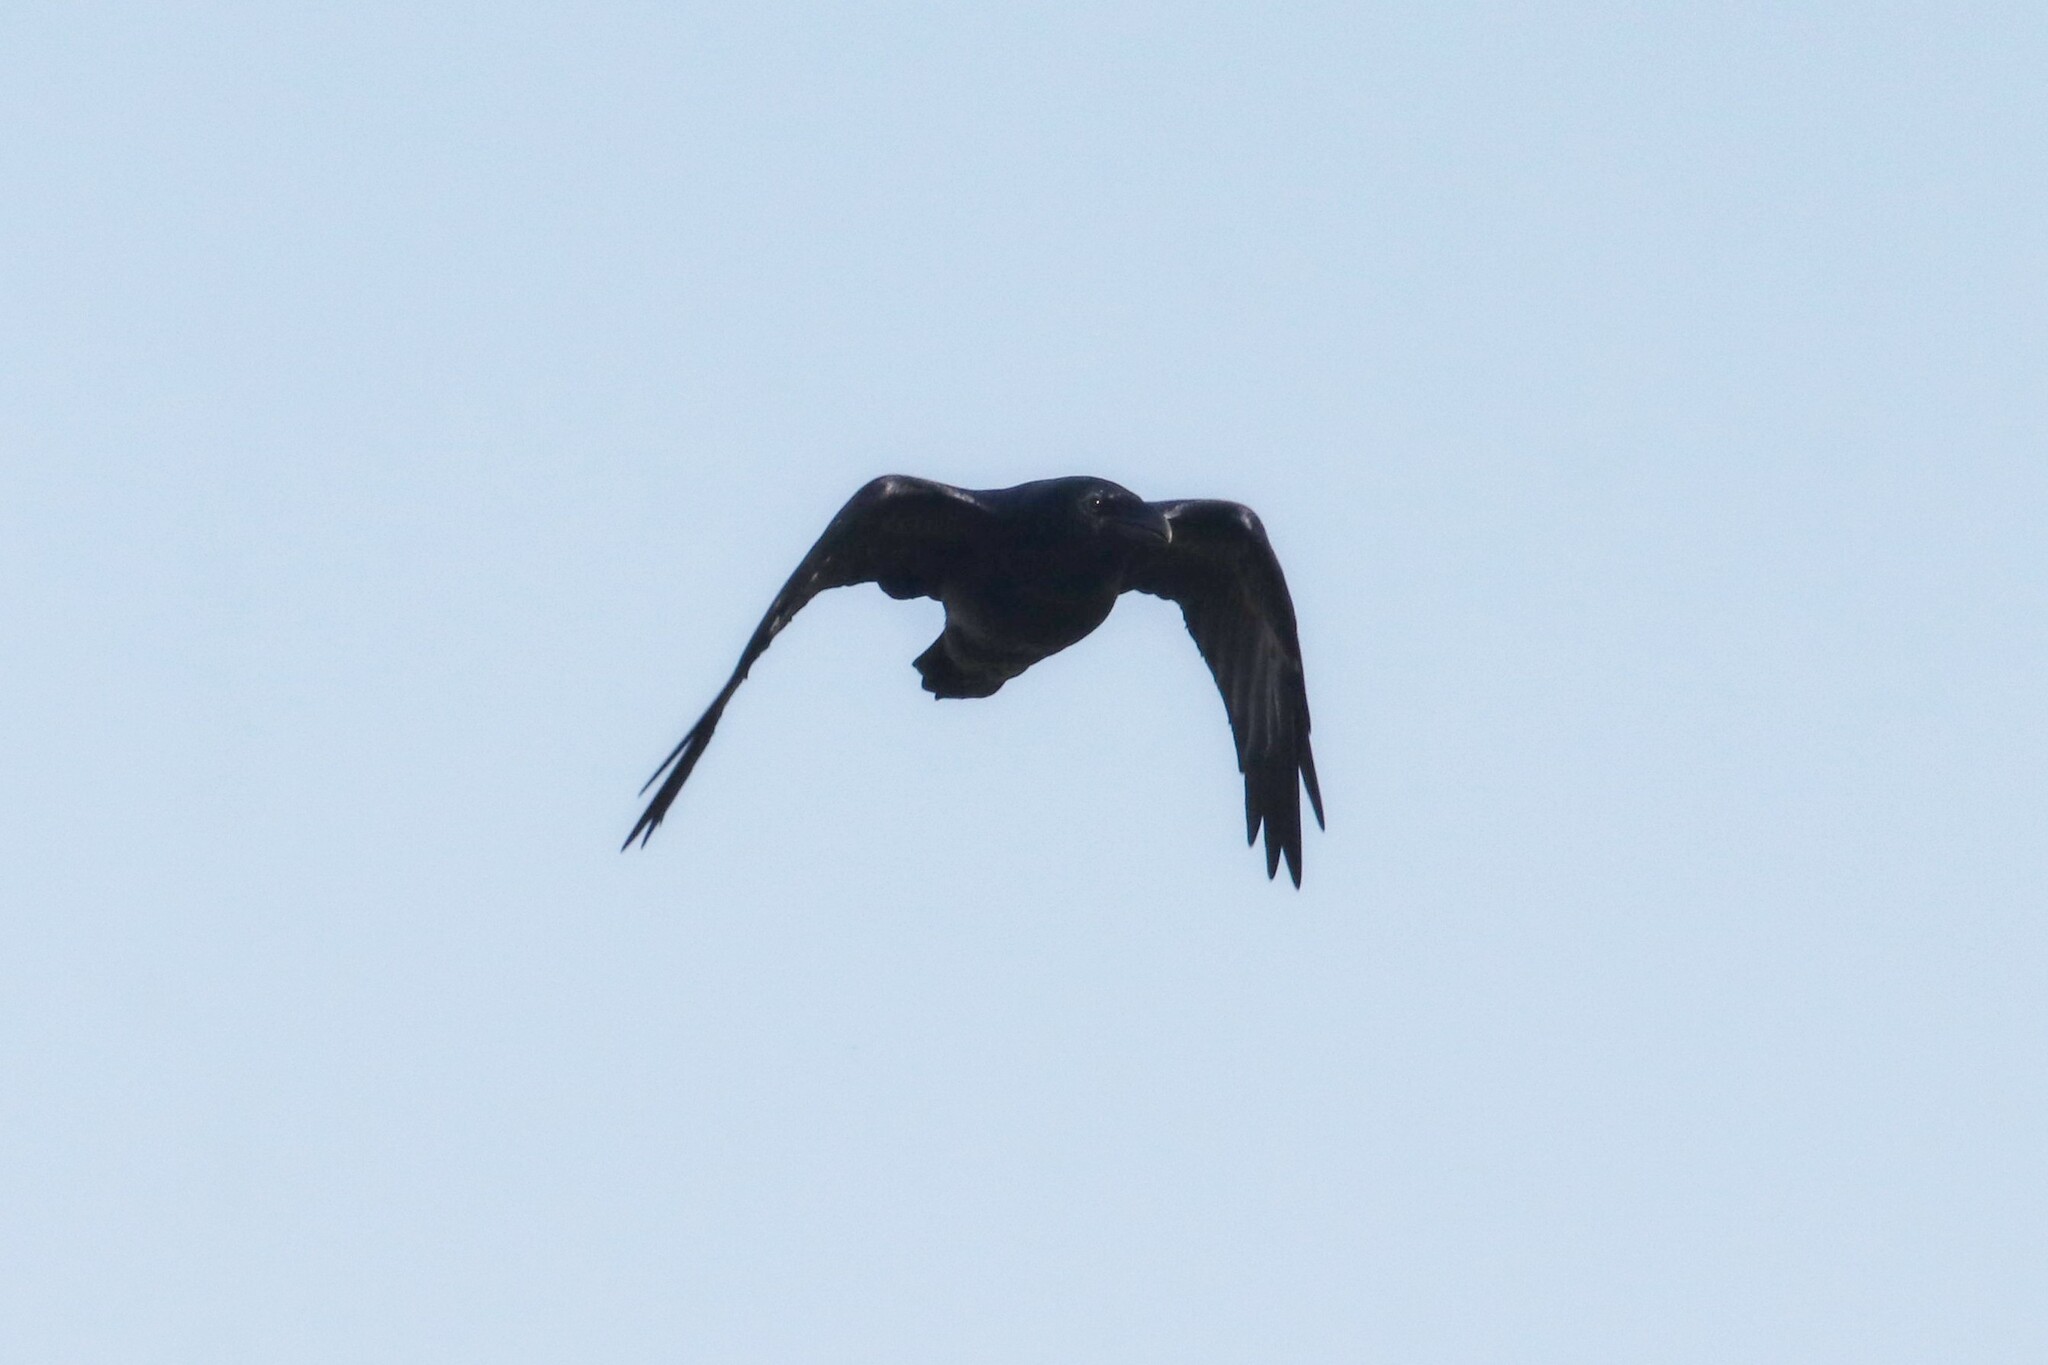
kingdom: Animalia
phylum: Chordata
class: Aves
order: Passeriformes
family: Corvidae
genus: Corvus
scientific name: Corvus corax
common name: Common raven
